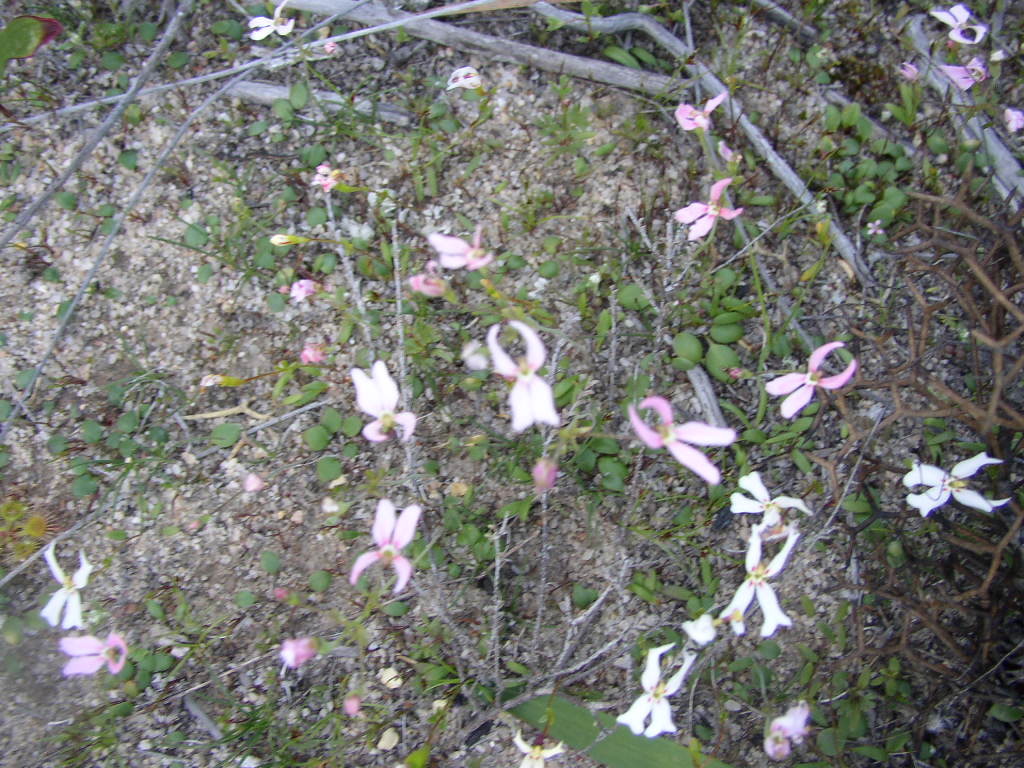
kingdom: Plantae
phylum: Tracheophyta
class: Magnoliopsida
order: Asterales
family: Stylidiaceae
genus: Stylidium
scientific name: Stylidium emarginatum
